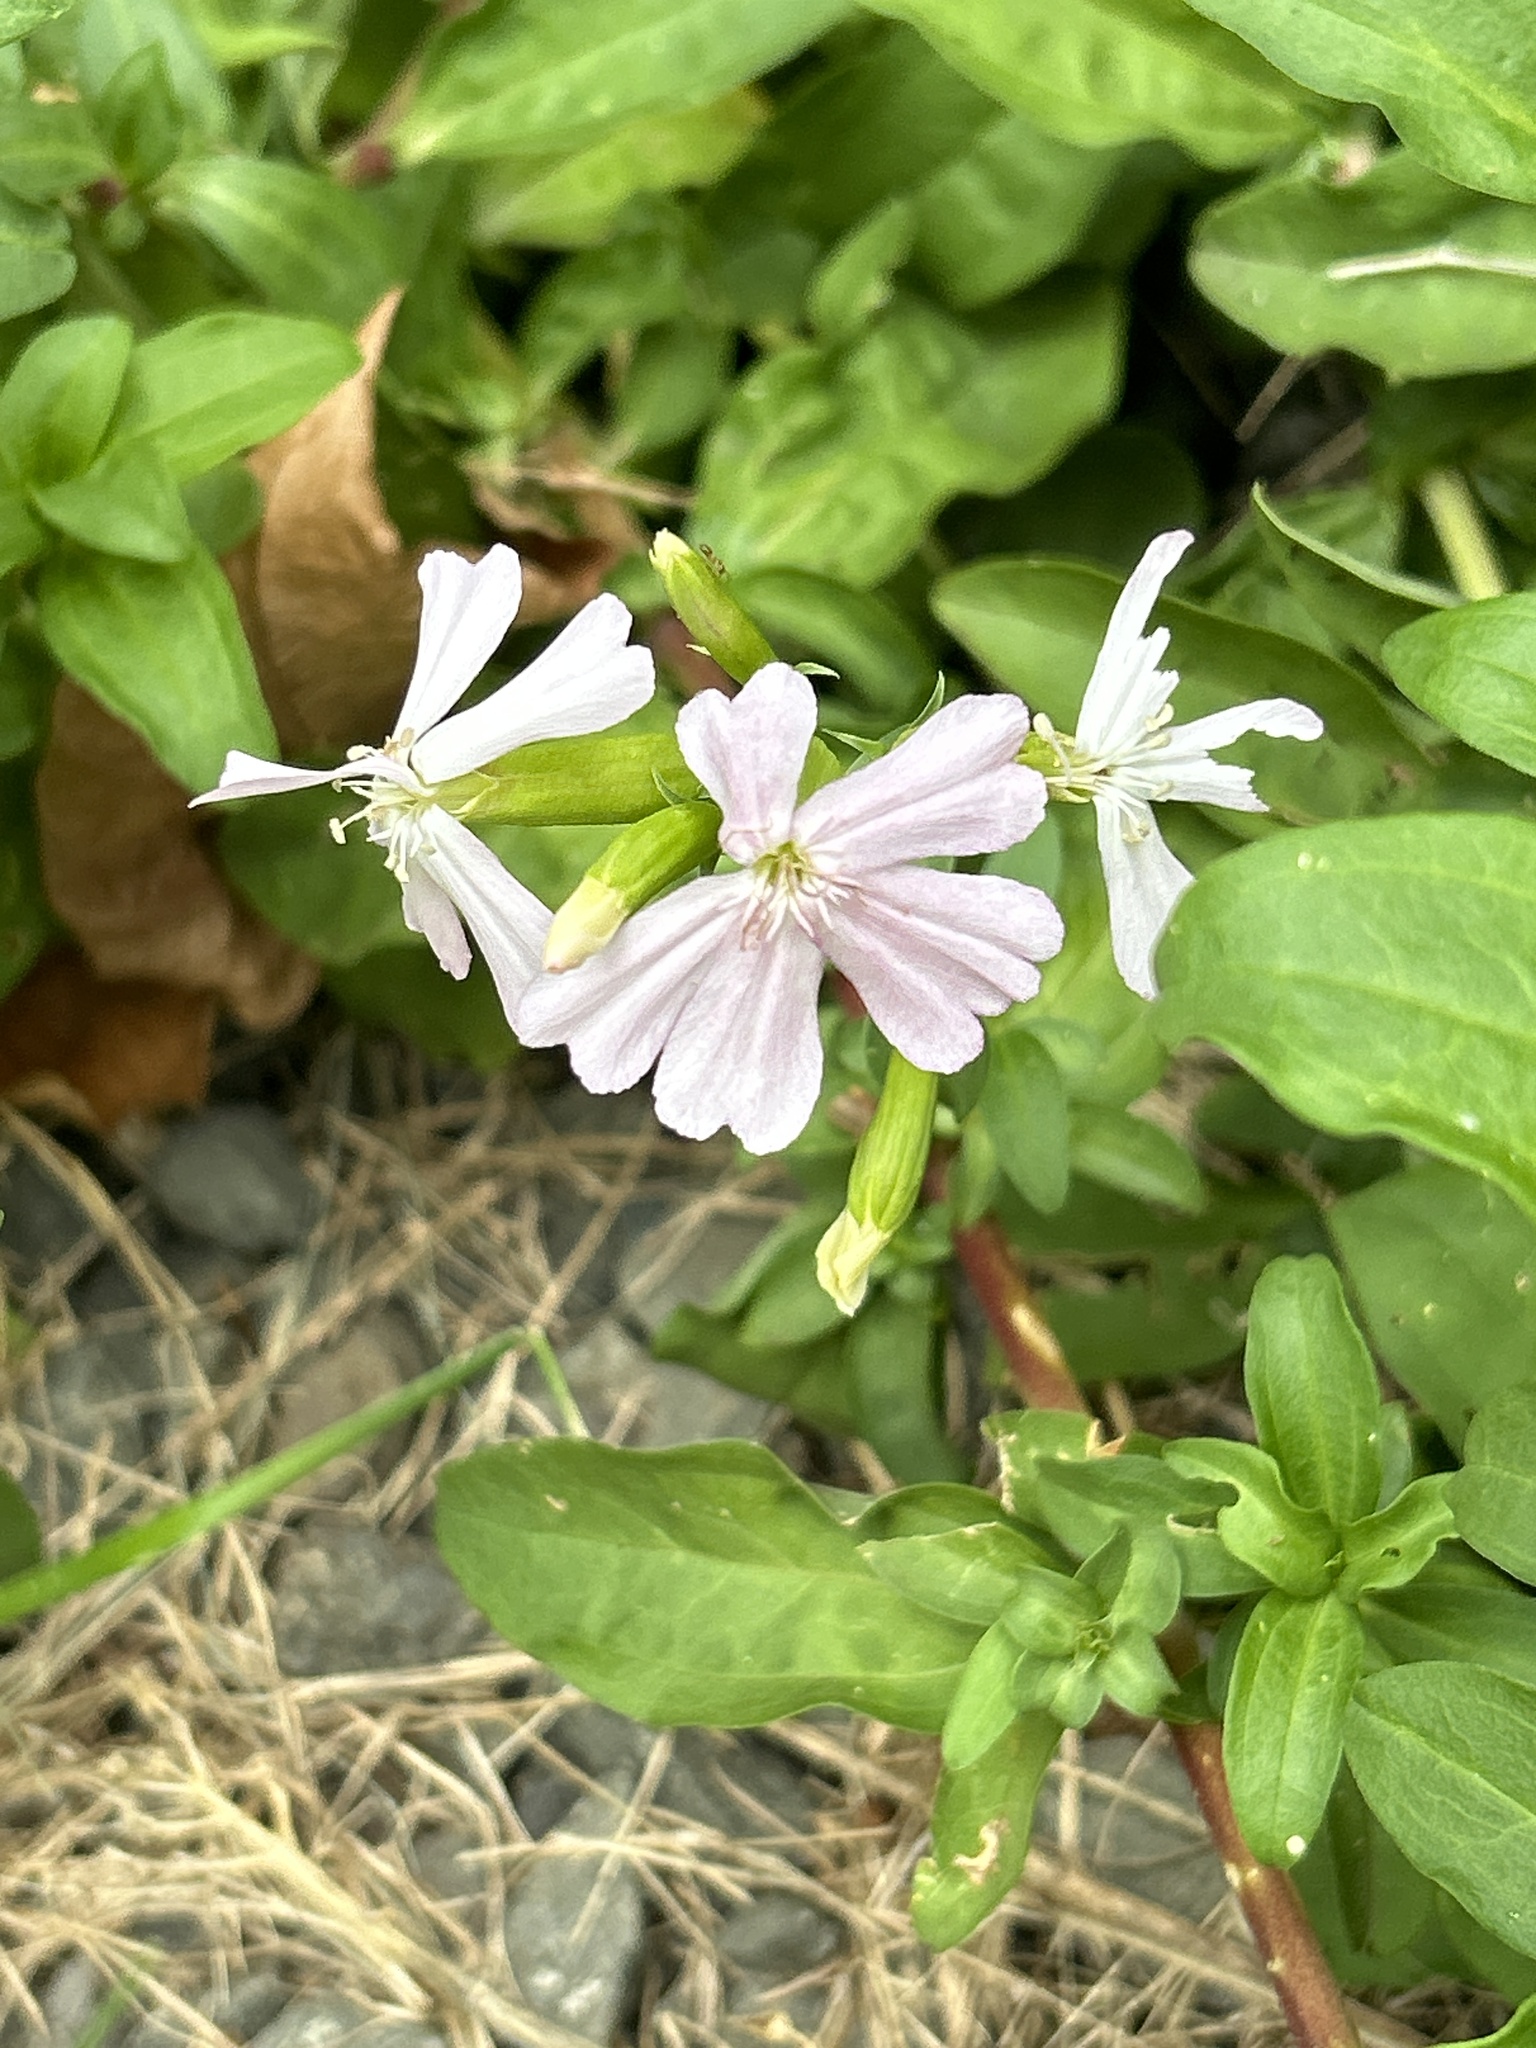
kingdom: Plantae
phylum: Tracheophyta
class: Magnoliopsida
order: Caryophyllales
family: Caryophyllaceae
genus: Saponaria
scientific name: Saponaria officinalis
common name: Soapwort
